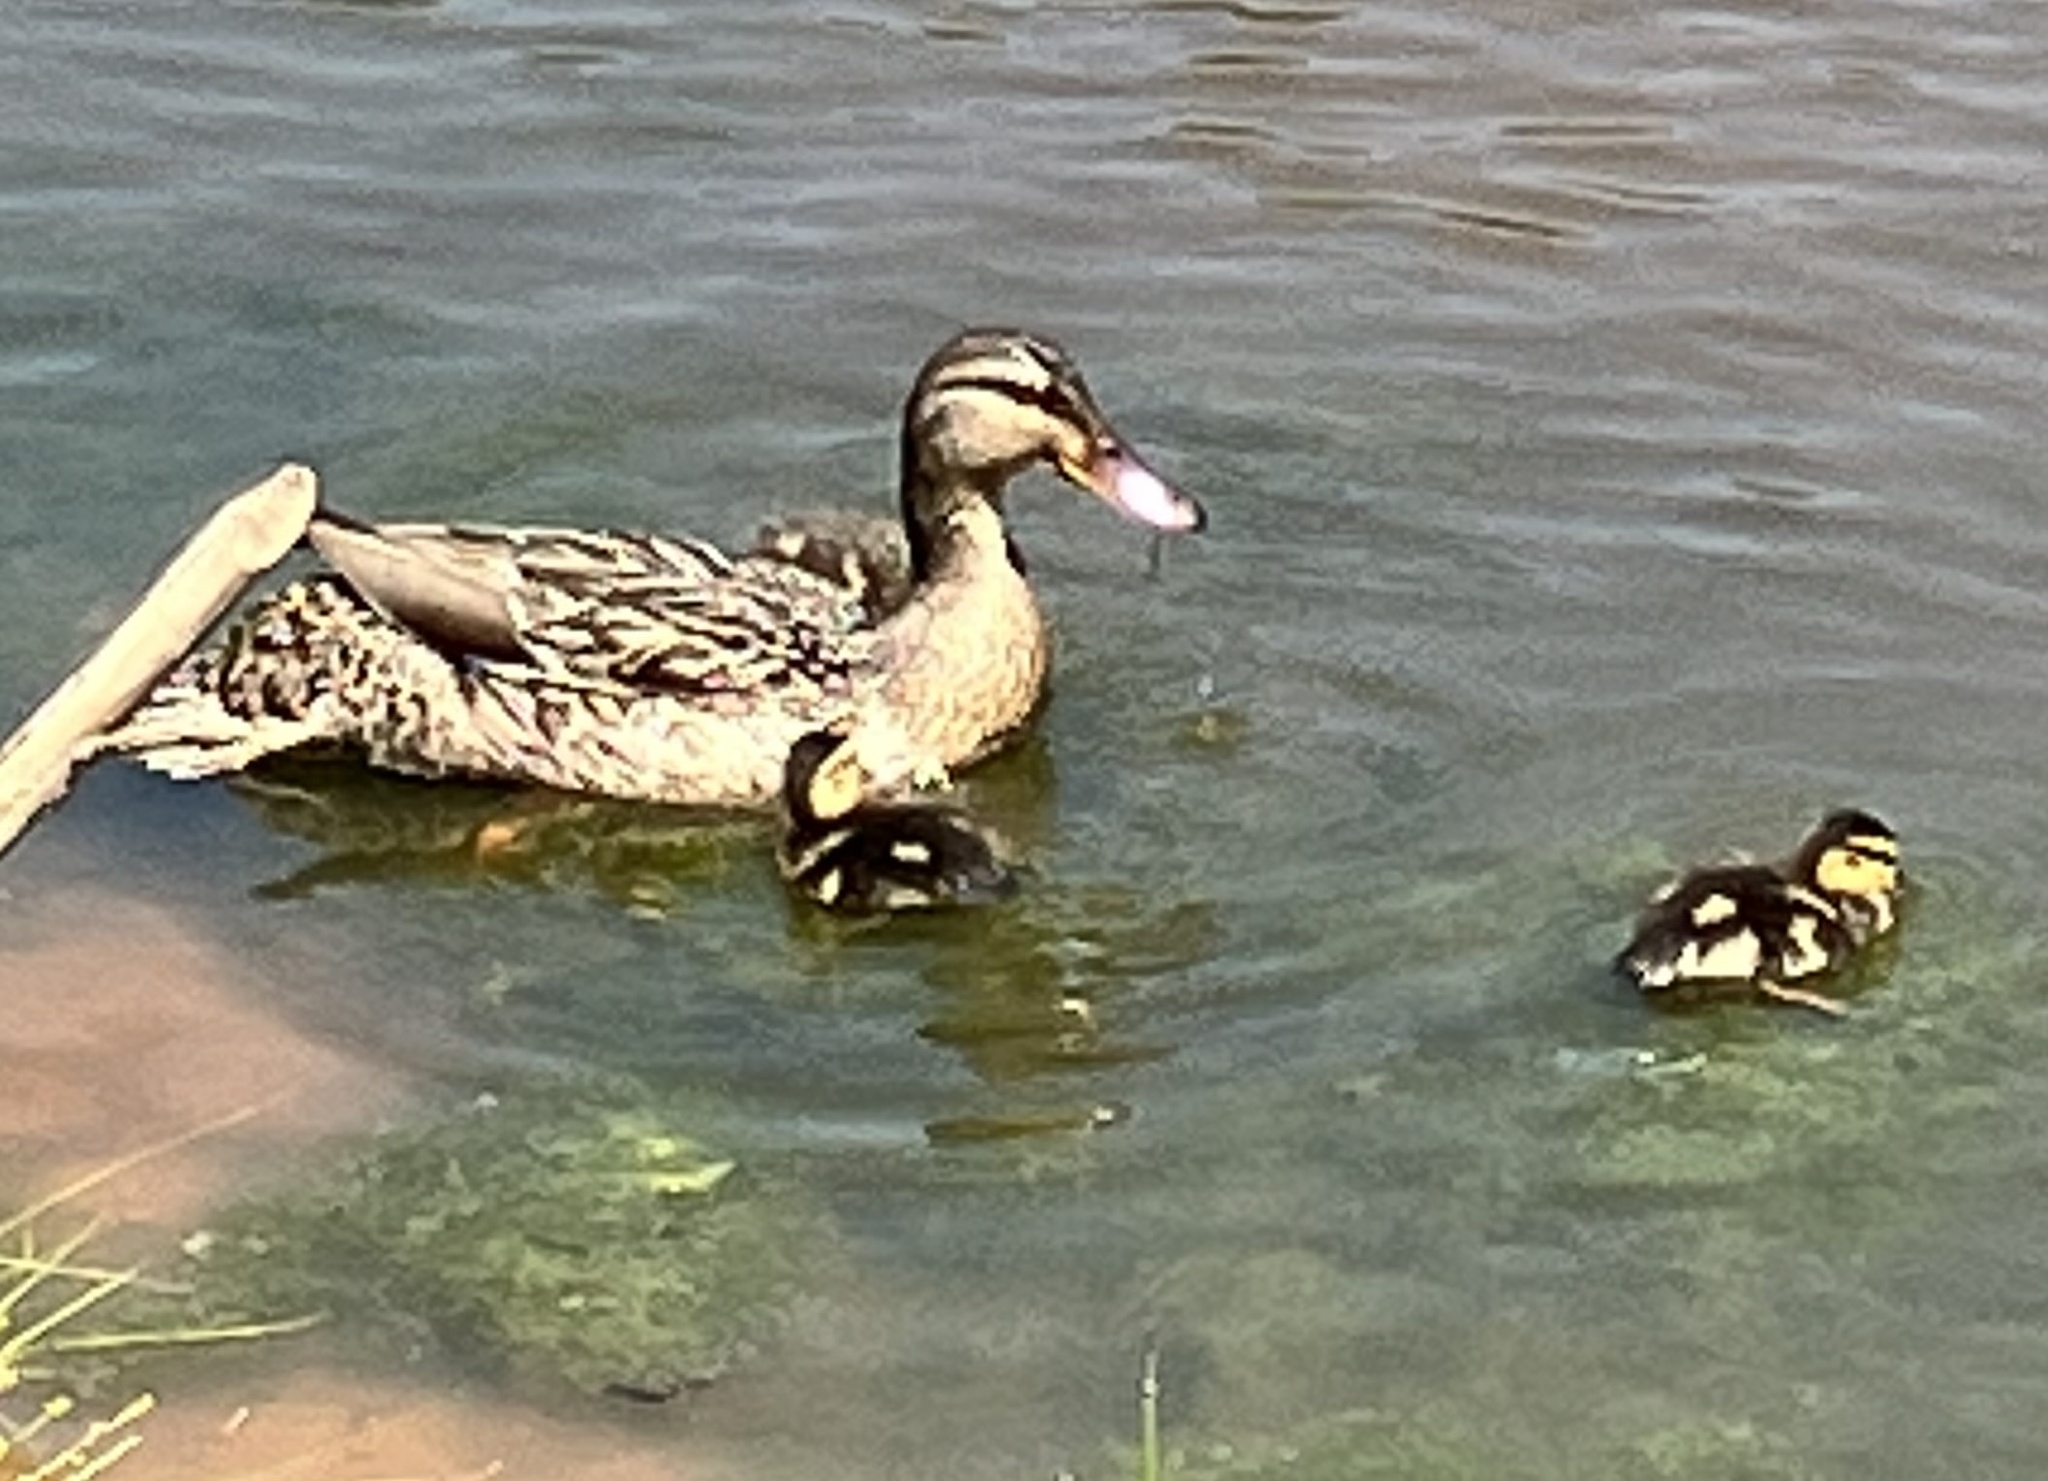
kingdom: Animalia
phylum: Chordata
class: Aves
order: Anseriformes
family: Anatidae
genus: Anas
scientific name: Anas platyrhynchos
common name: Mallard
